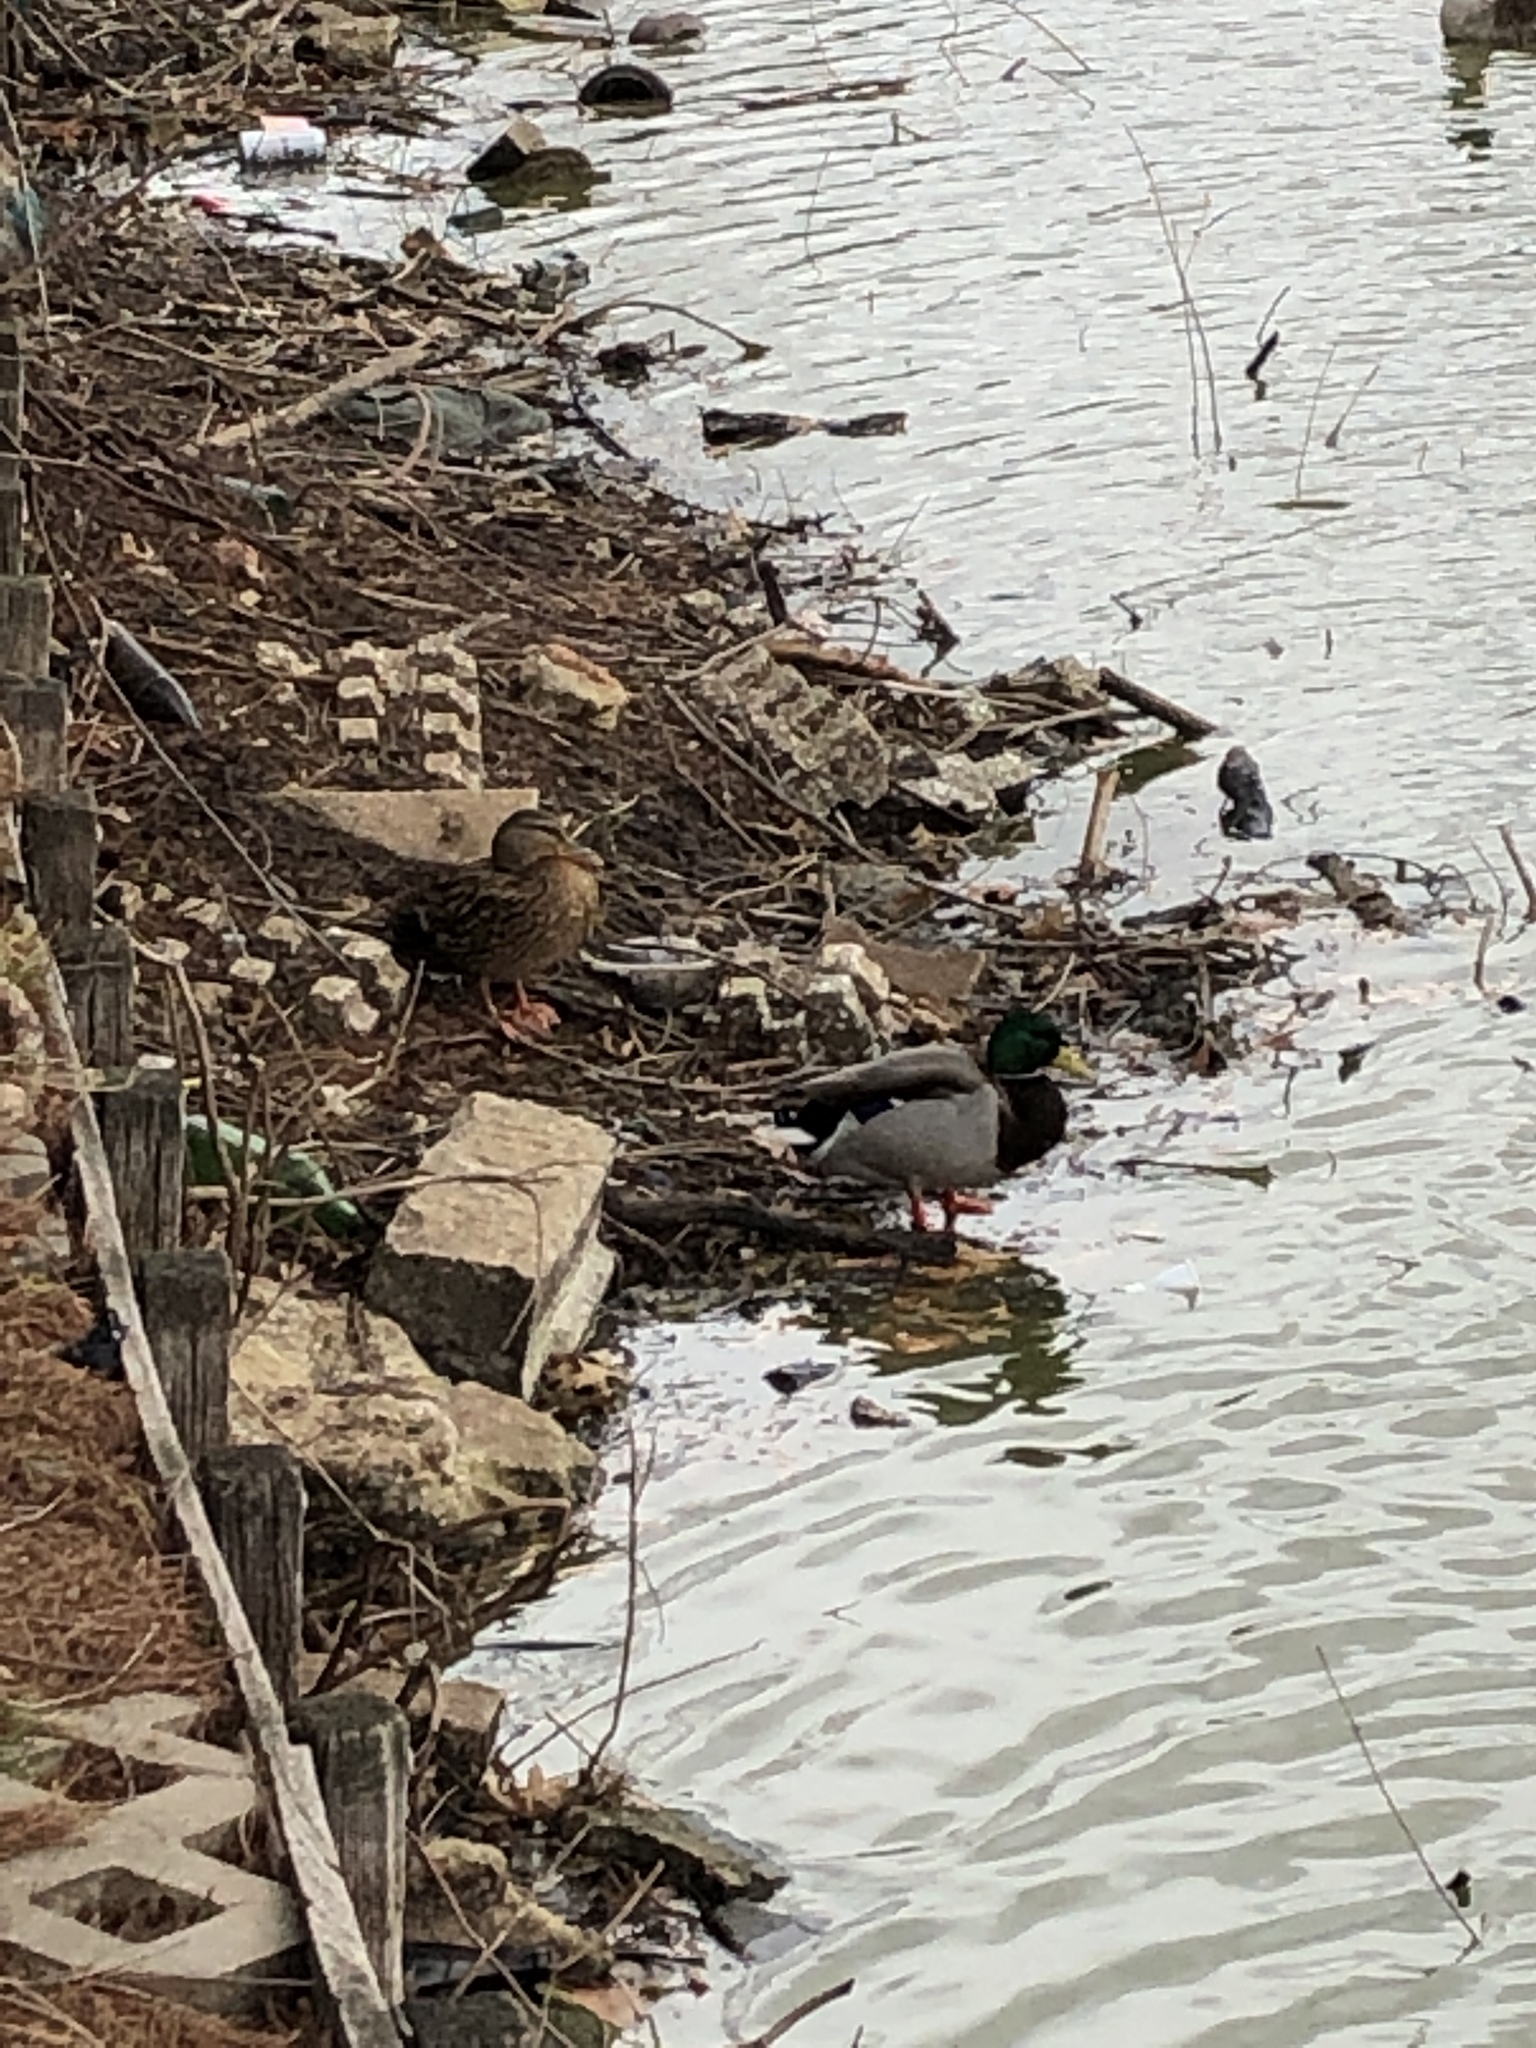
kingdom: Animalia
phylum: Chordata
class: Aves
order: Anseriformes
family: Anatidae
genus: Anas
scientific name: Anas platyrhynchos
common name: Mallard
